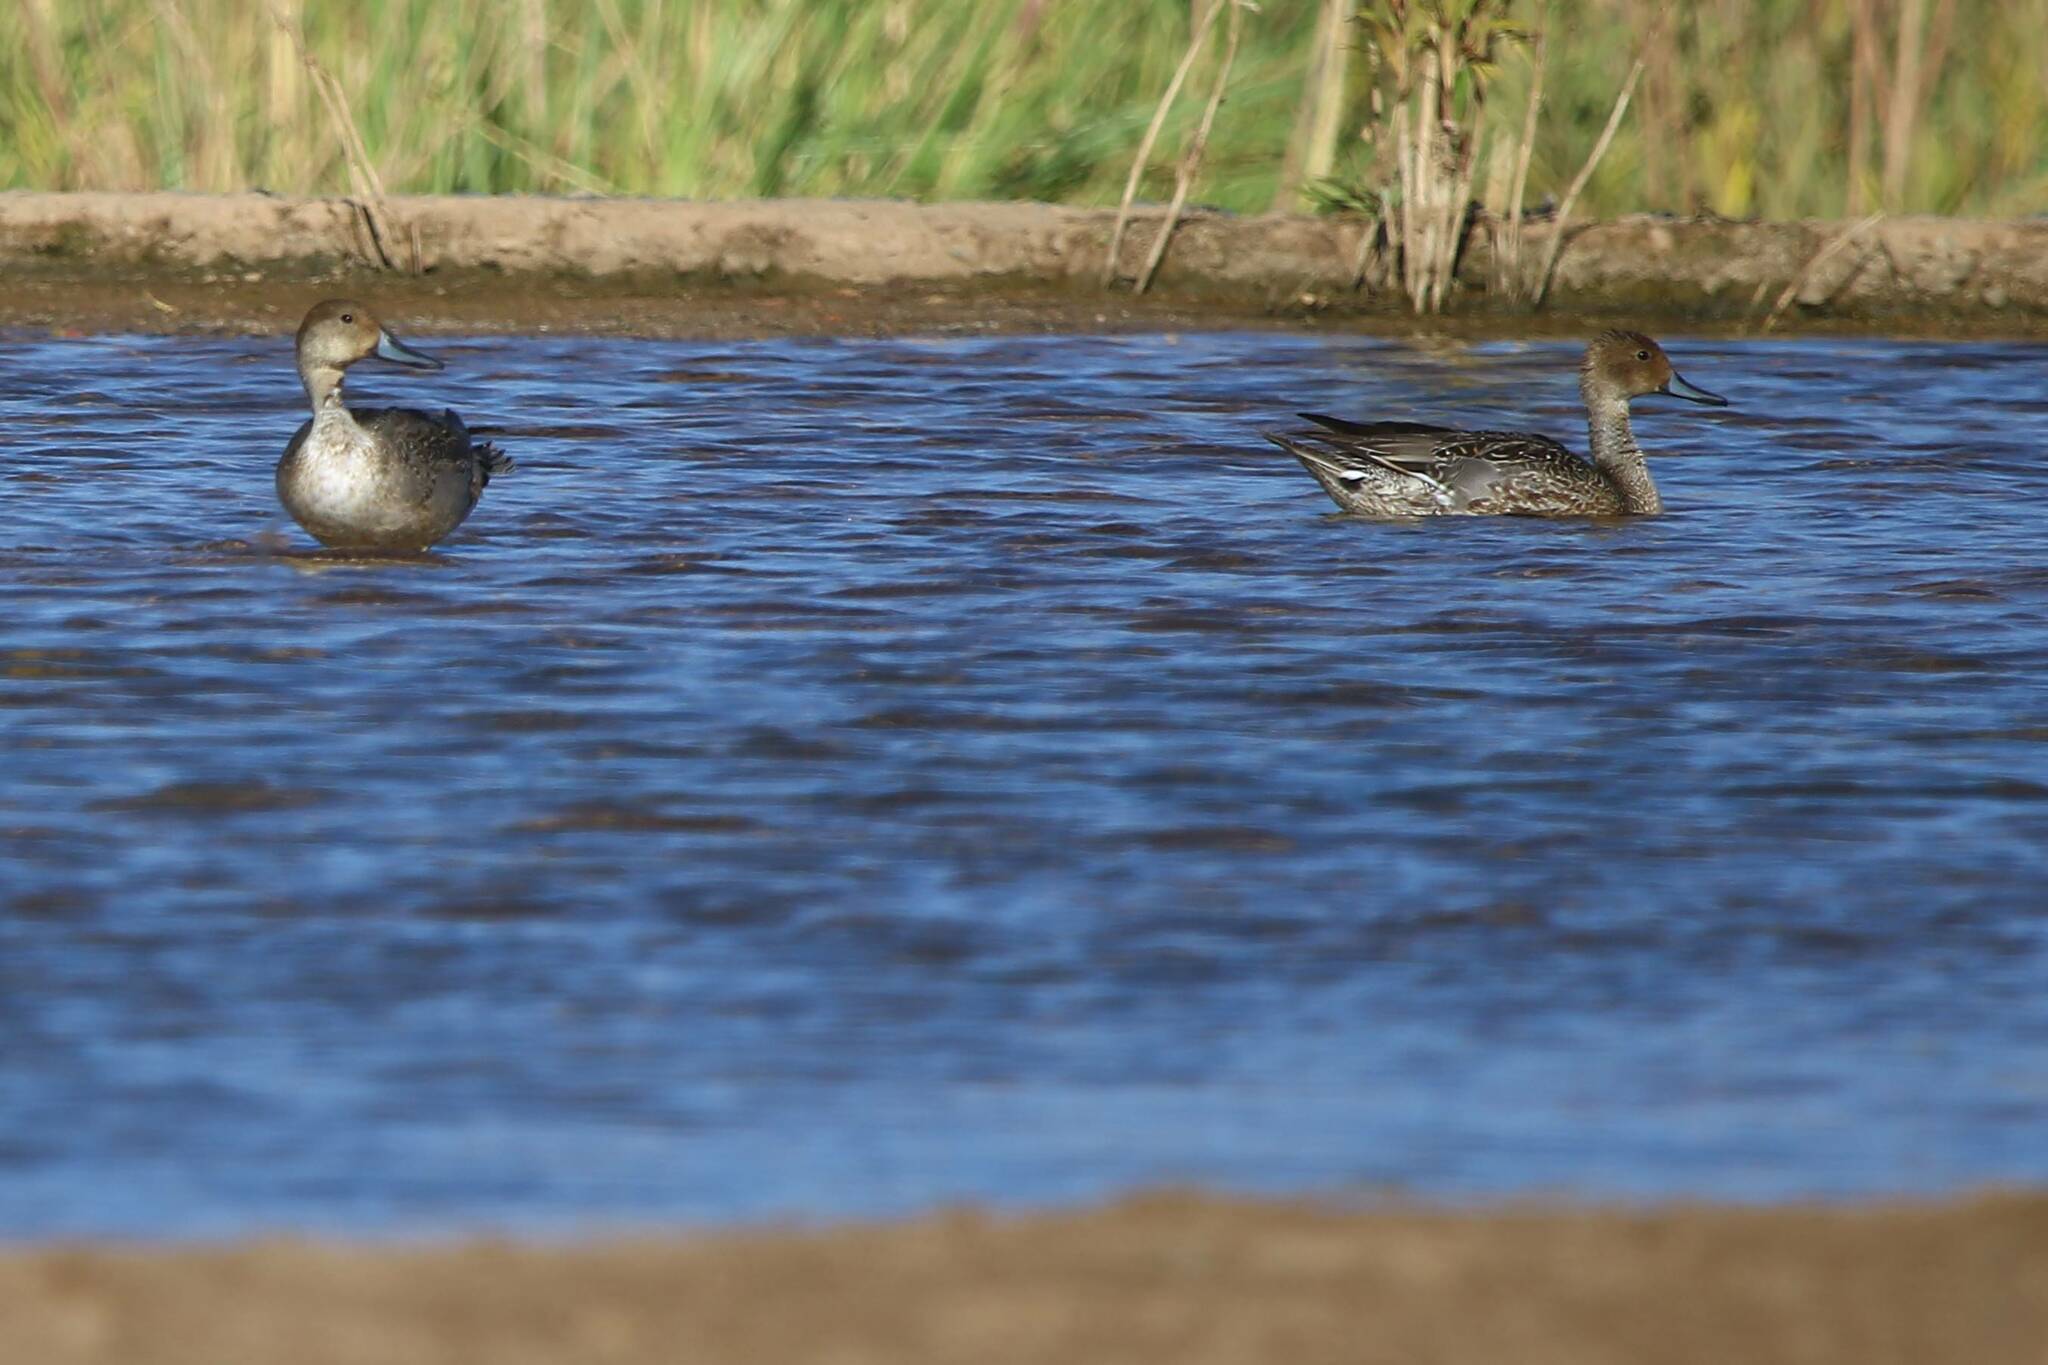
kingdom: Animalia
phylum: Chordata
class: Aves
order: Anseriformes
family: Anatidae
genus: Anas
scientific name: Anas acuta
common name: Northern pintail
